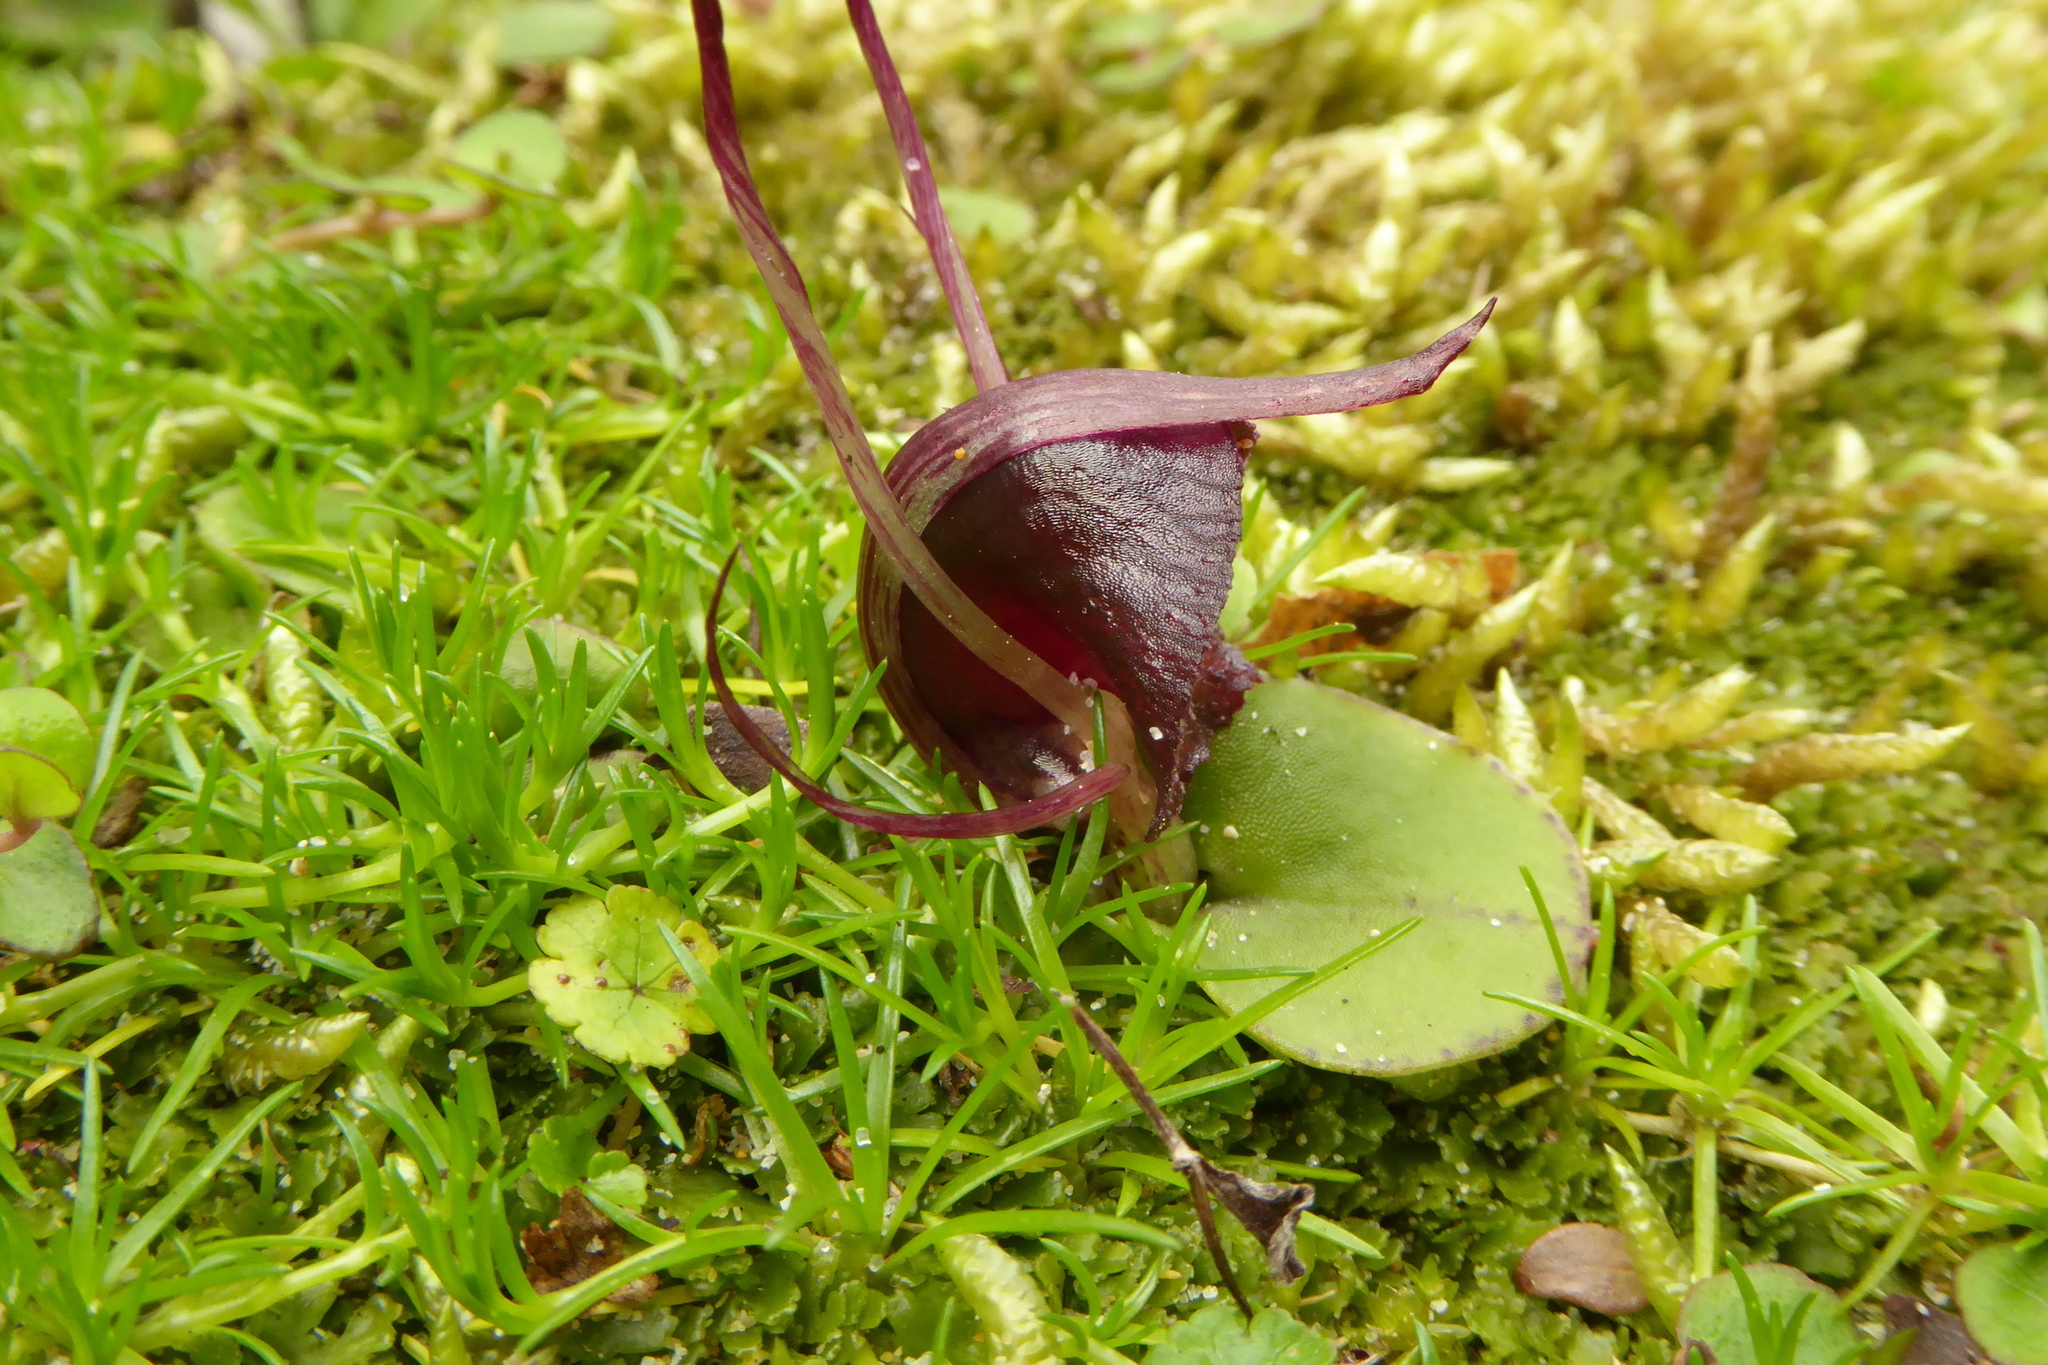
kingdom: Plantae
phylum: Tracheophyta
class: Liliopsida
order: Asparagales
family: Orchidaceae
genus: Corybas
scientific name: Corybas macranthus
